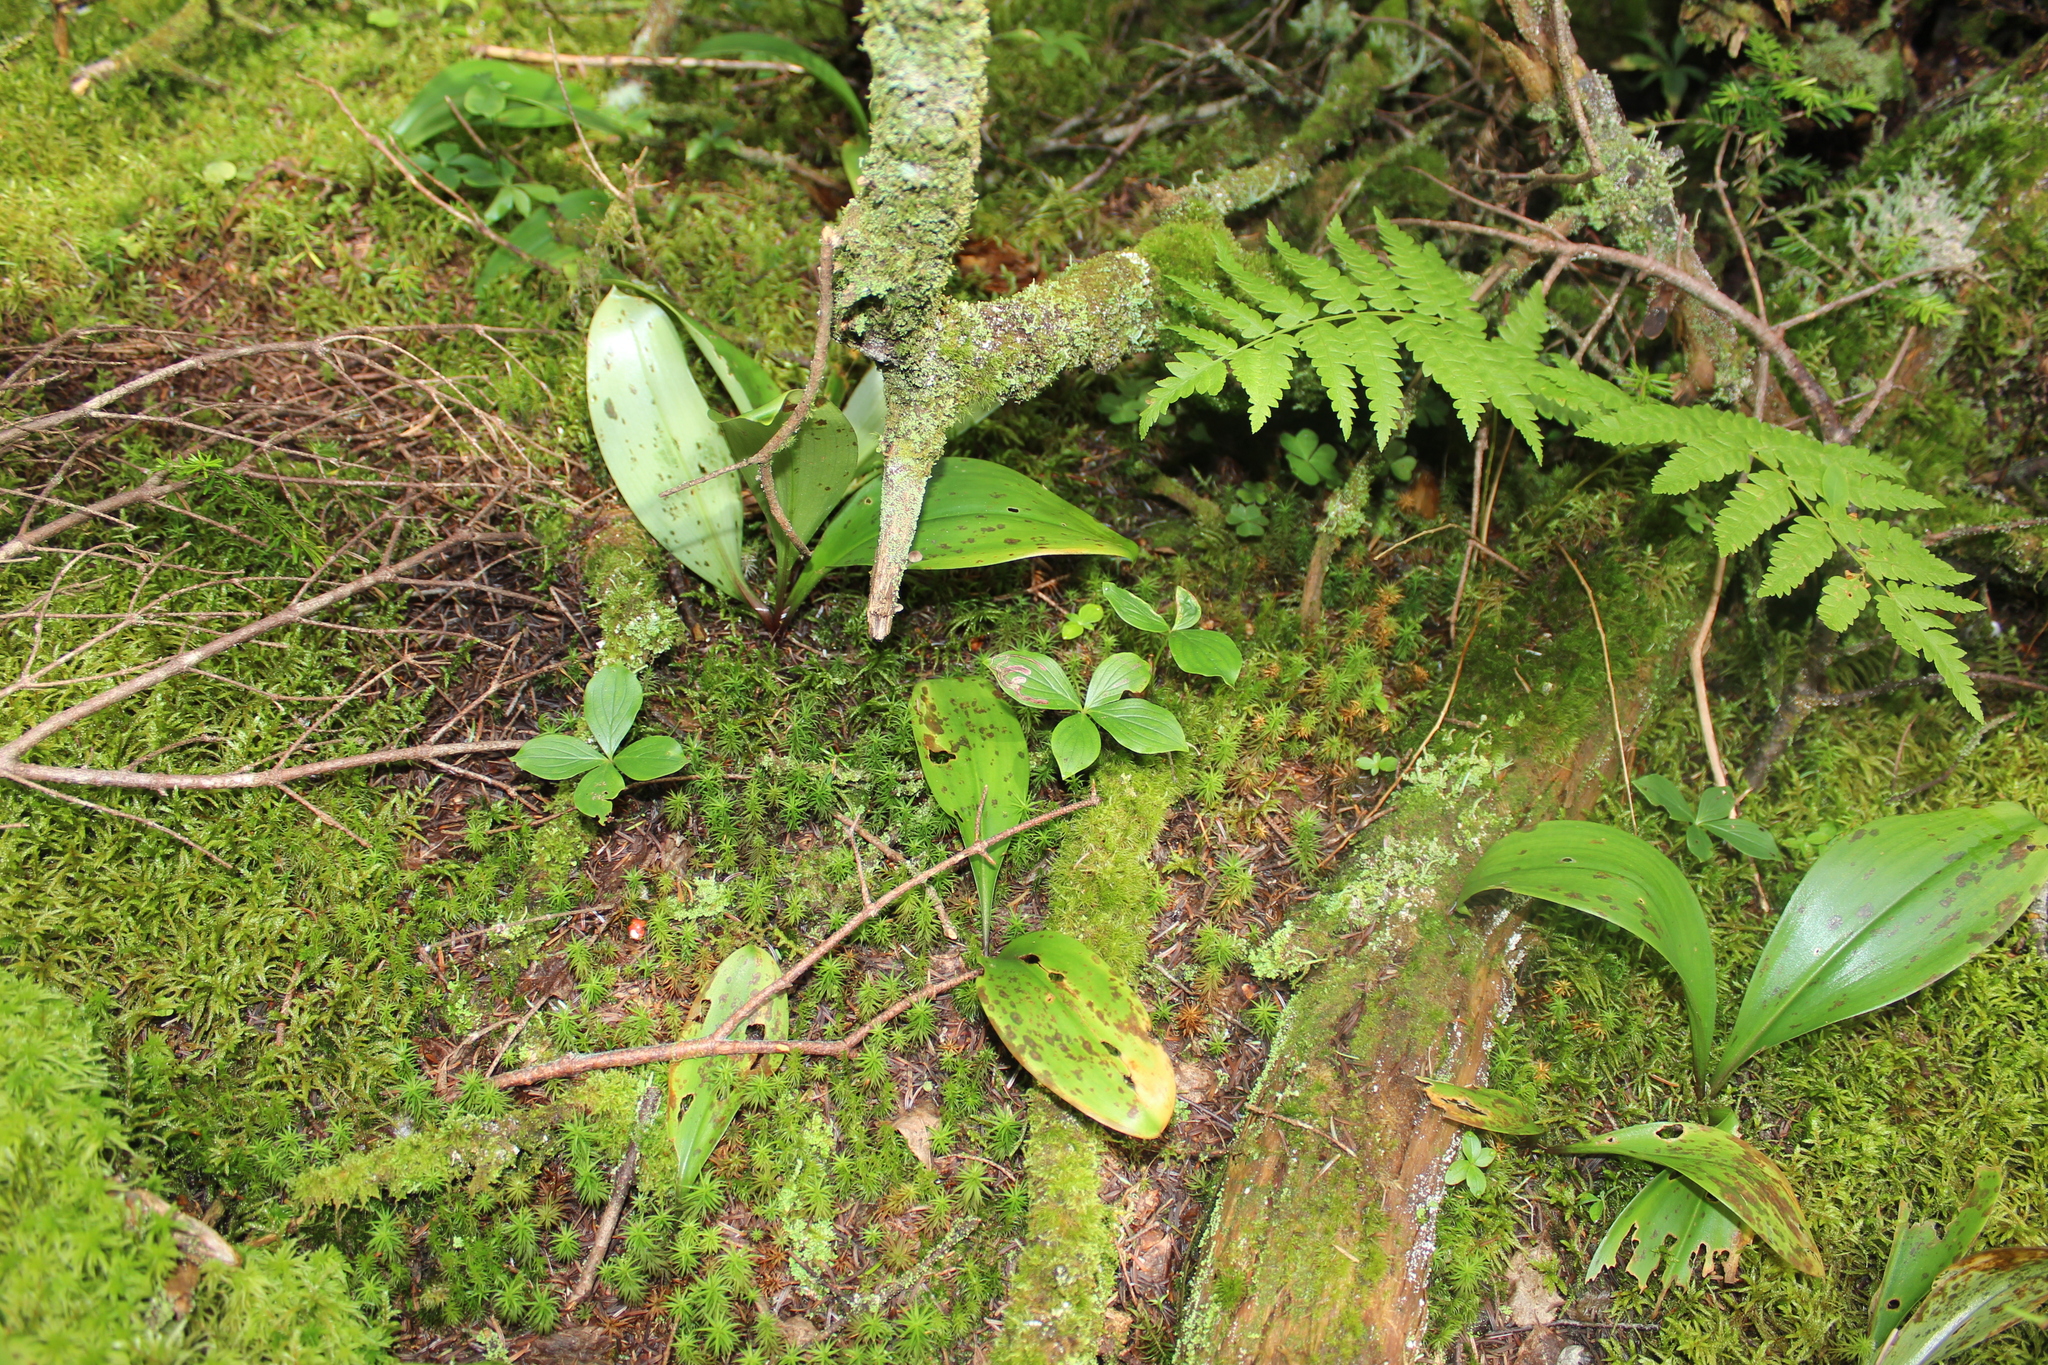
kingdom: Plantae
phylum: Tracheophyta
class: Magnoliopsida
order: Cornales
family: Cornaceae
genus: Cornus
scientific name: Cornus canadensis
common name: Creeping dogwood
